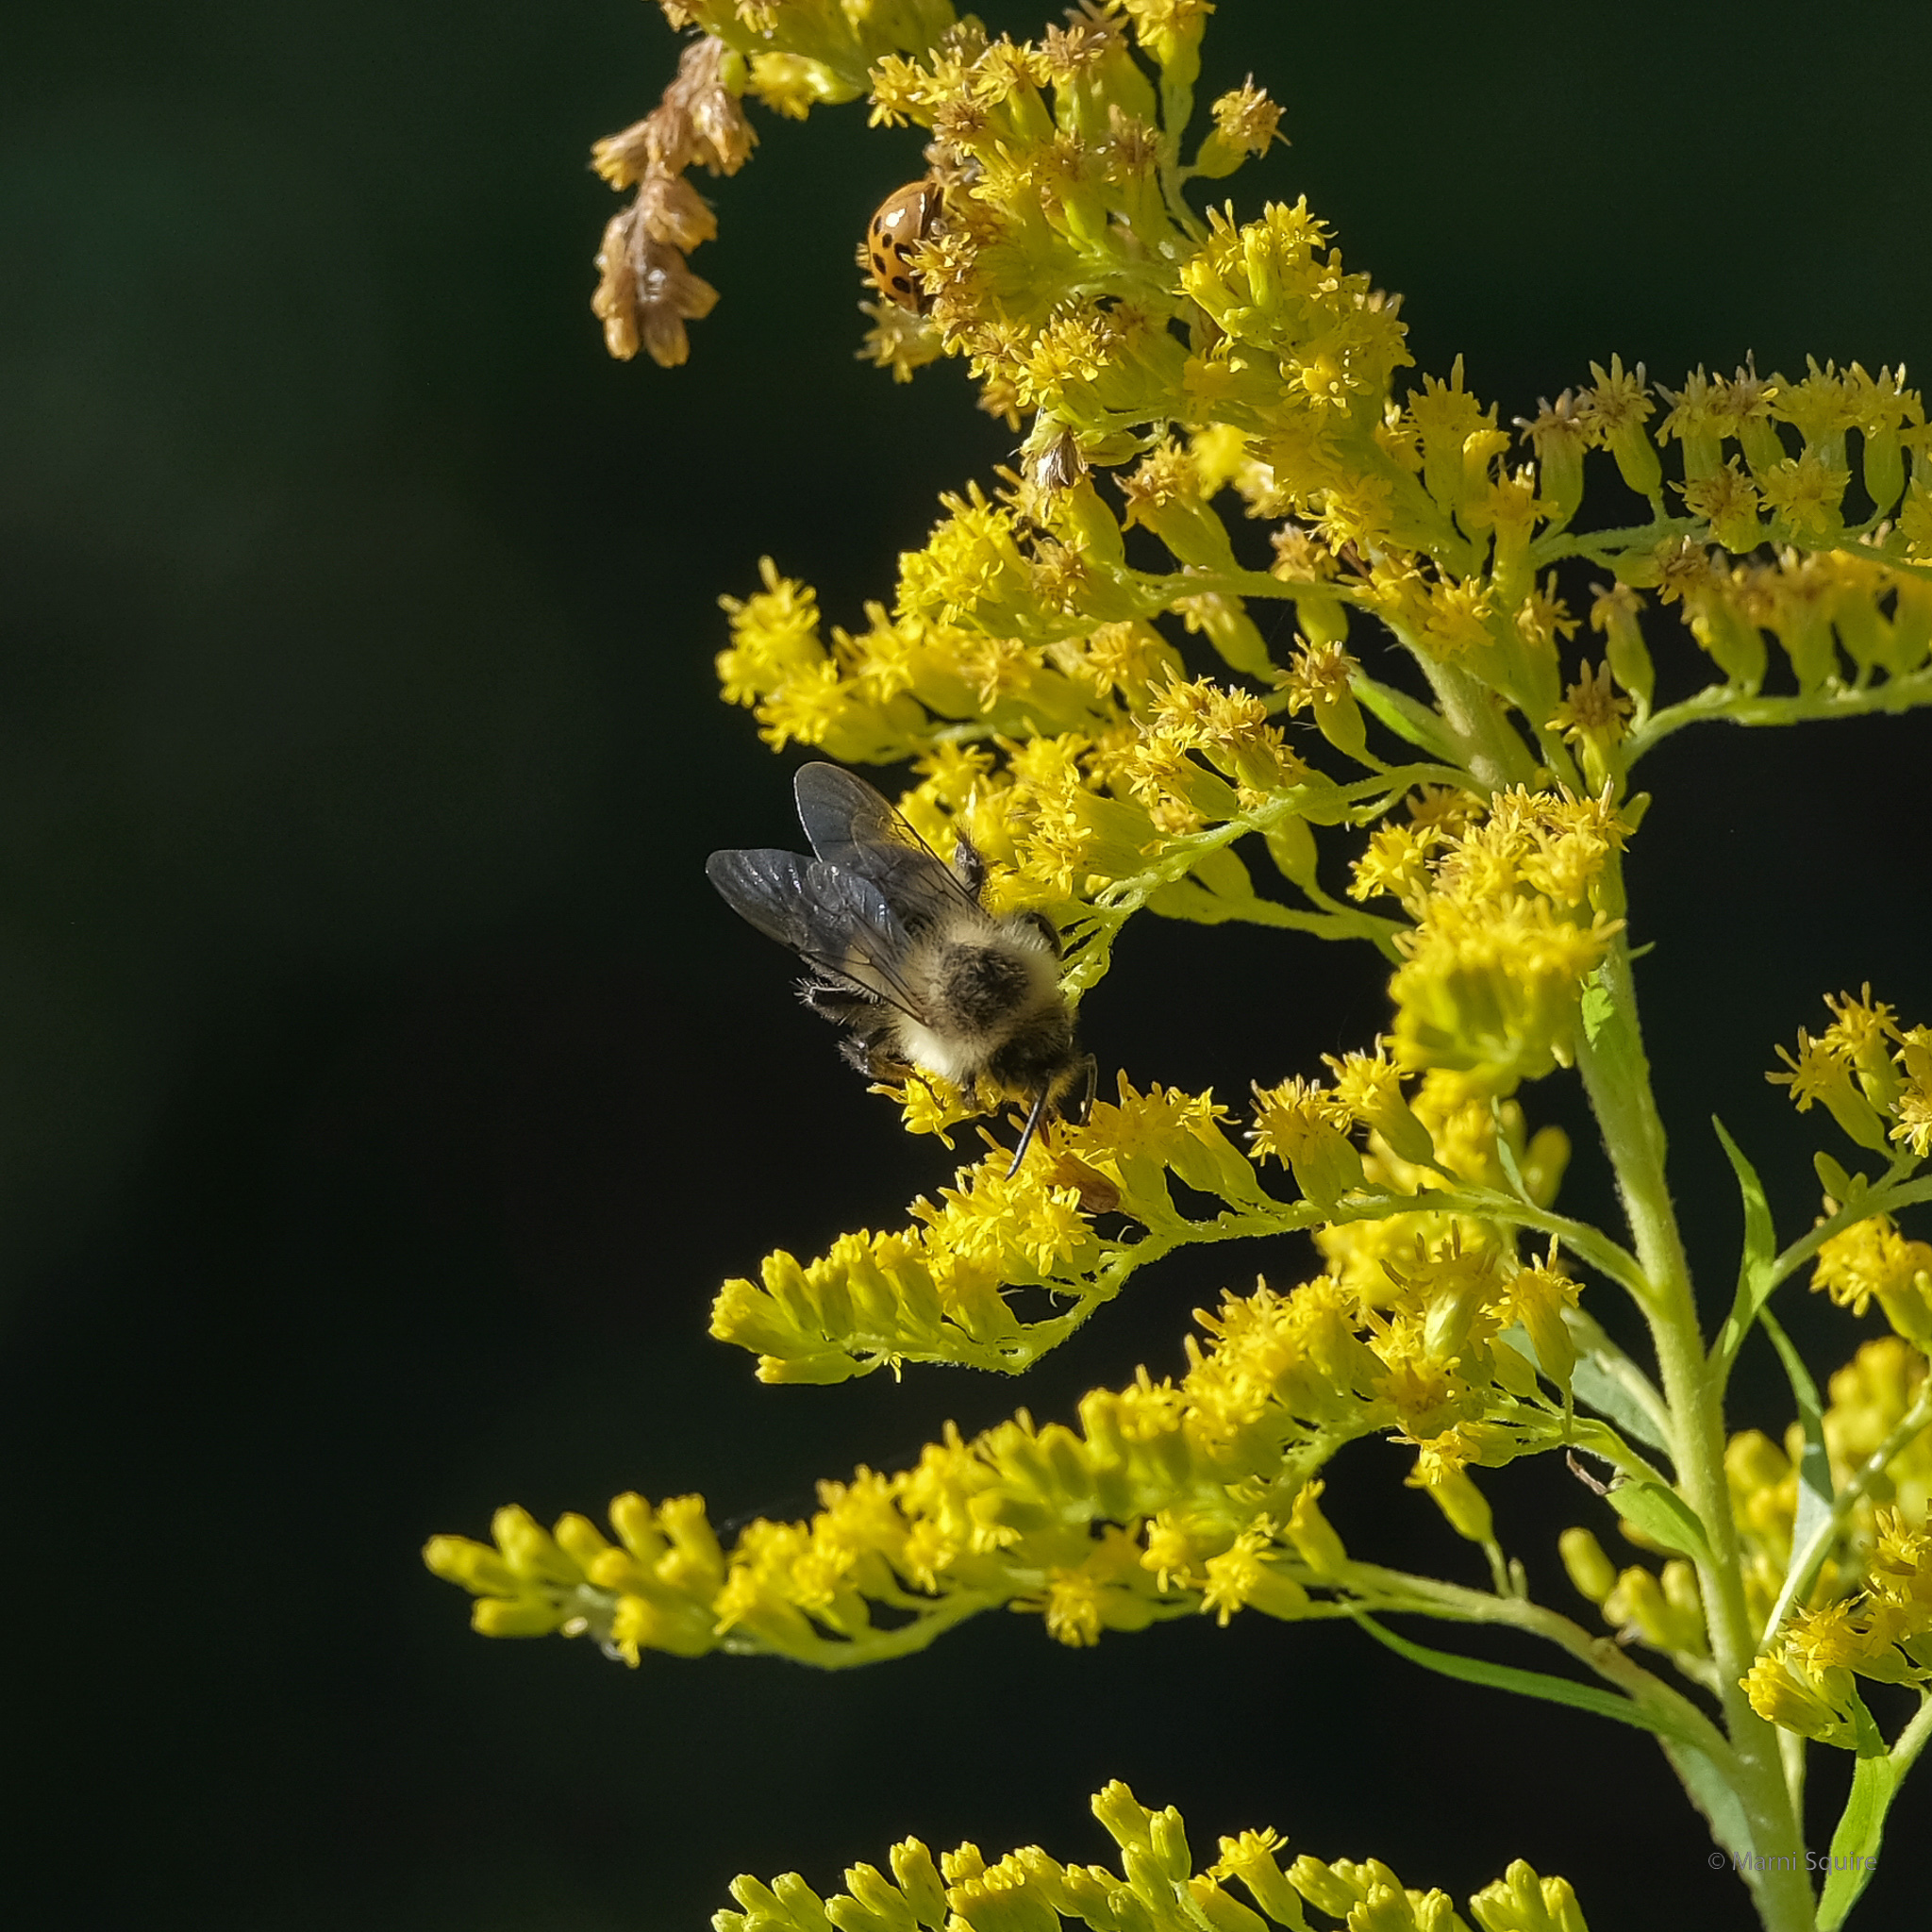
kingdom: Animalia
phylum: Arthropoda
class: Insecta
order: Hymenoptera
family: Apidae
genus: Bombus
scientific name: Bombus impatiens
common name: Common eastern bumble bee
